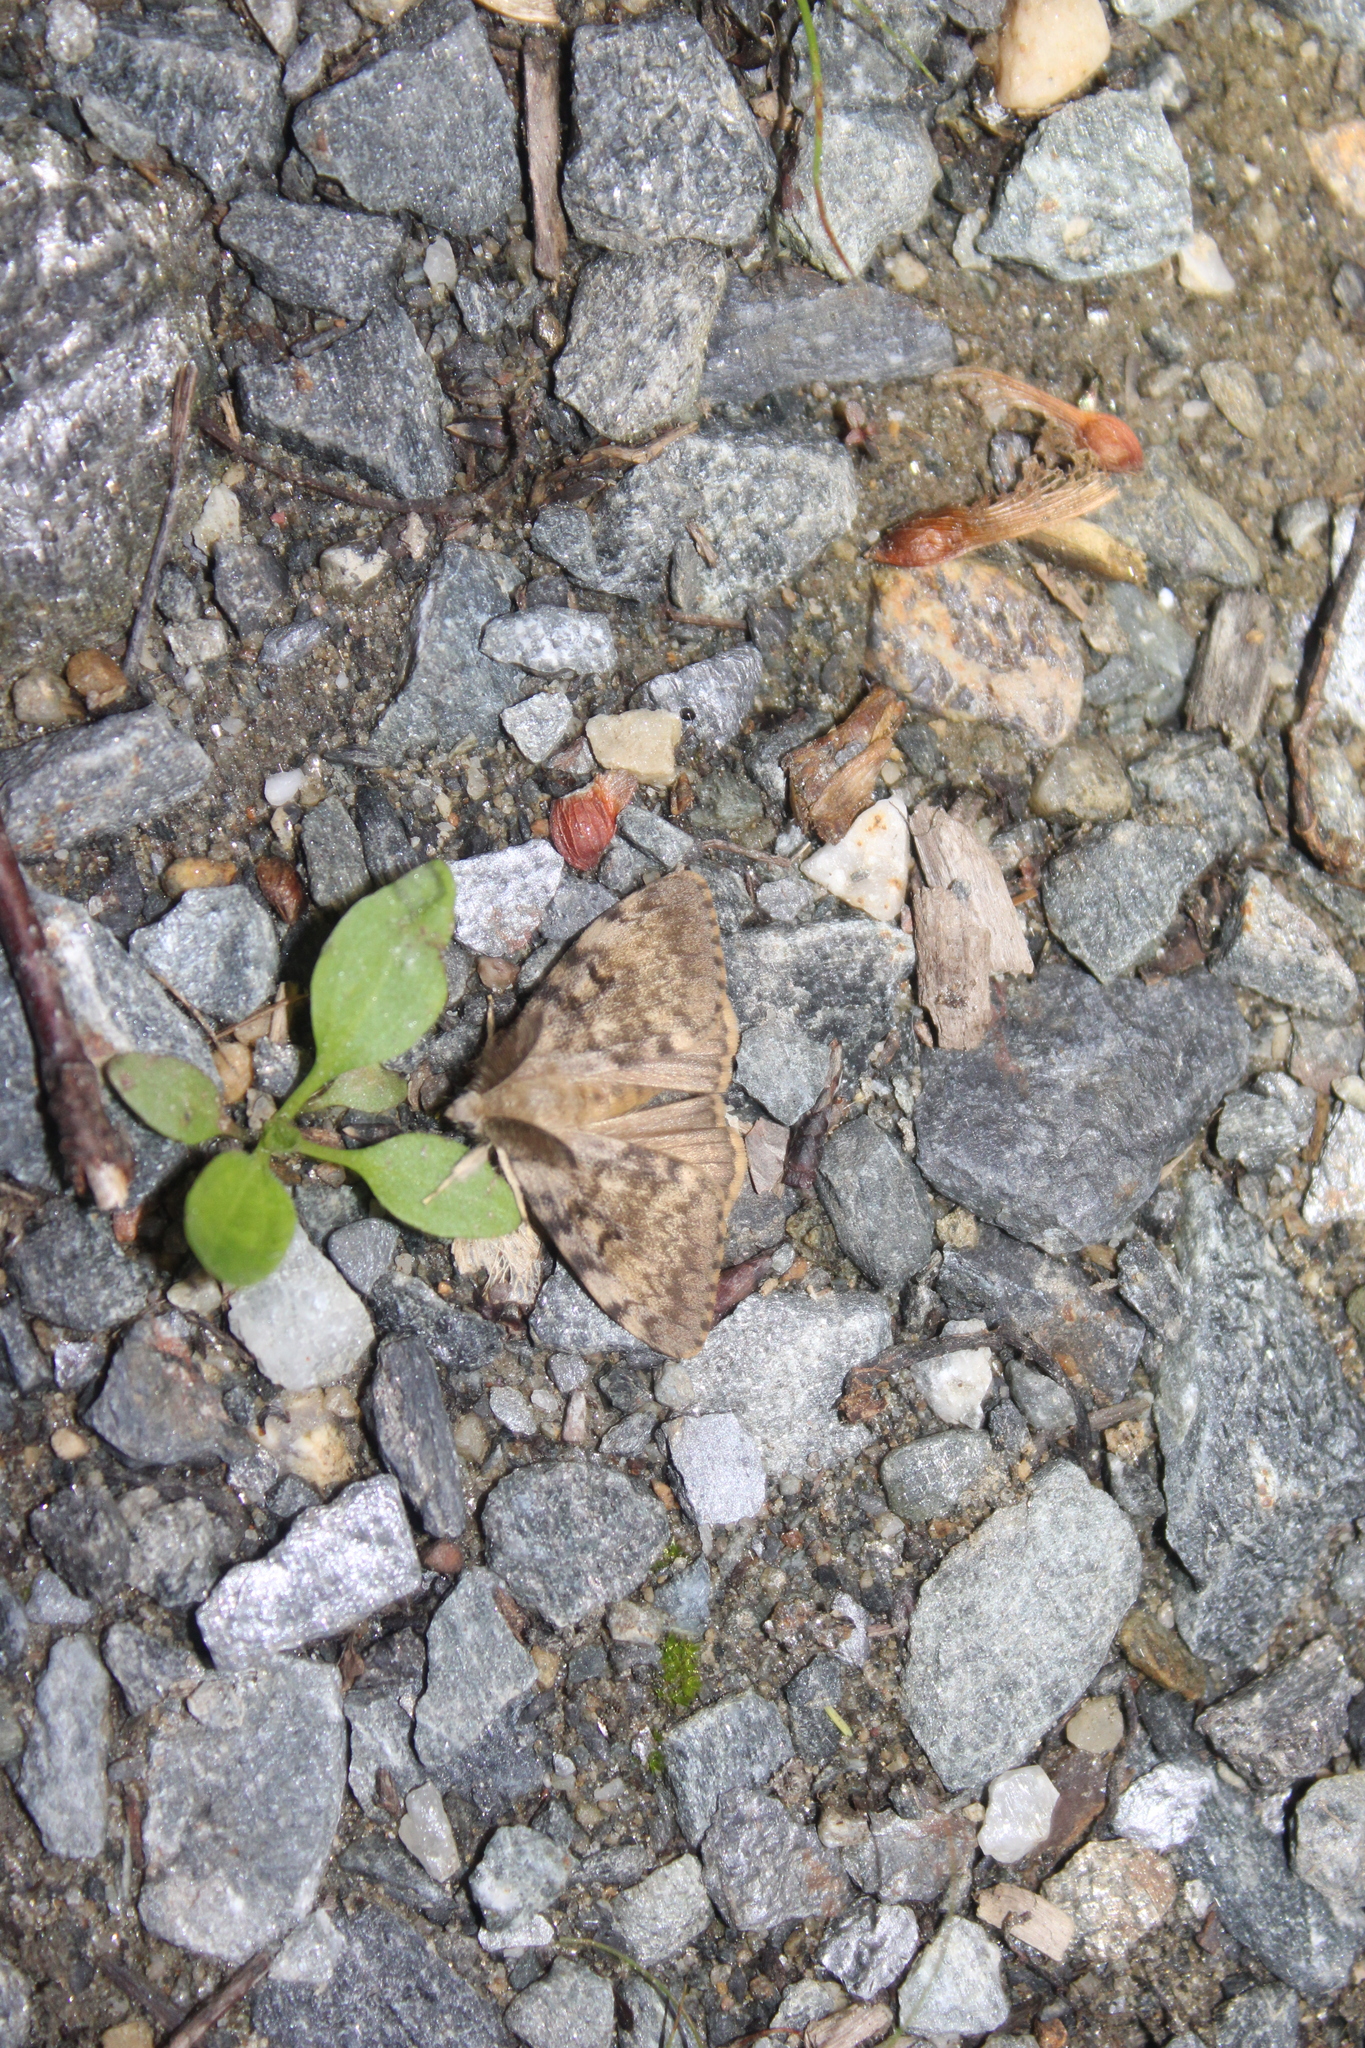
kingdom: Animalia
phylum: Arthropoda
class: Insecta
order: Lepidoptera
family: Erebidae
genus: Lymantria
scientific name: Lymantria dispar
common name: Gypsy moth
